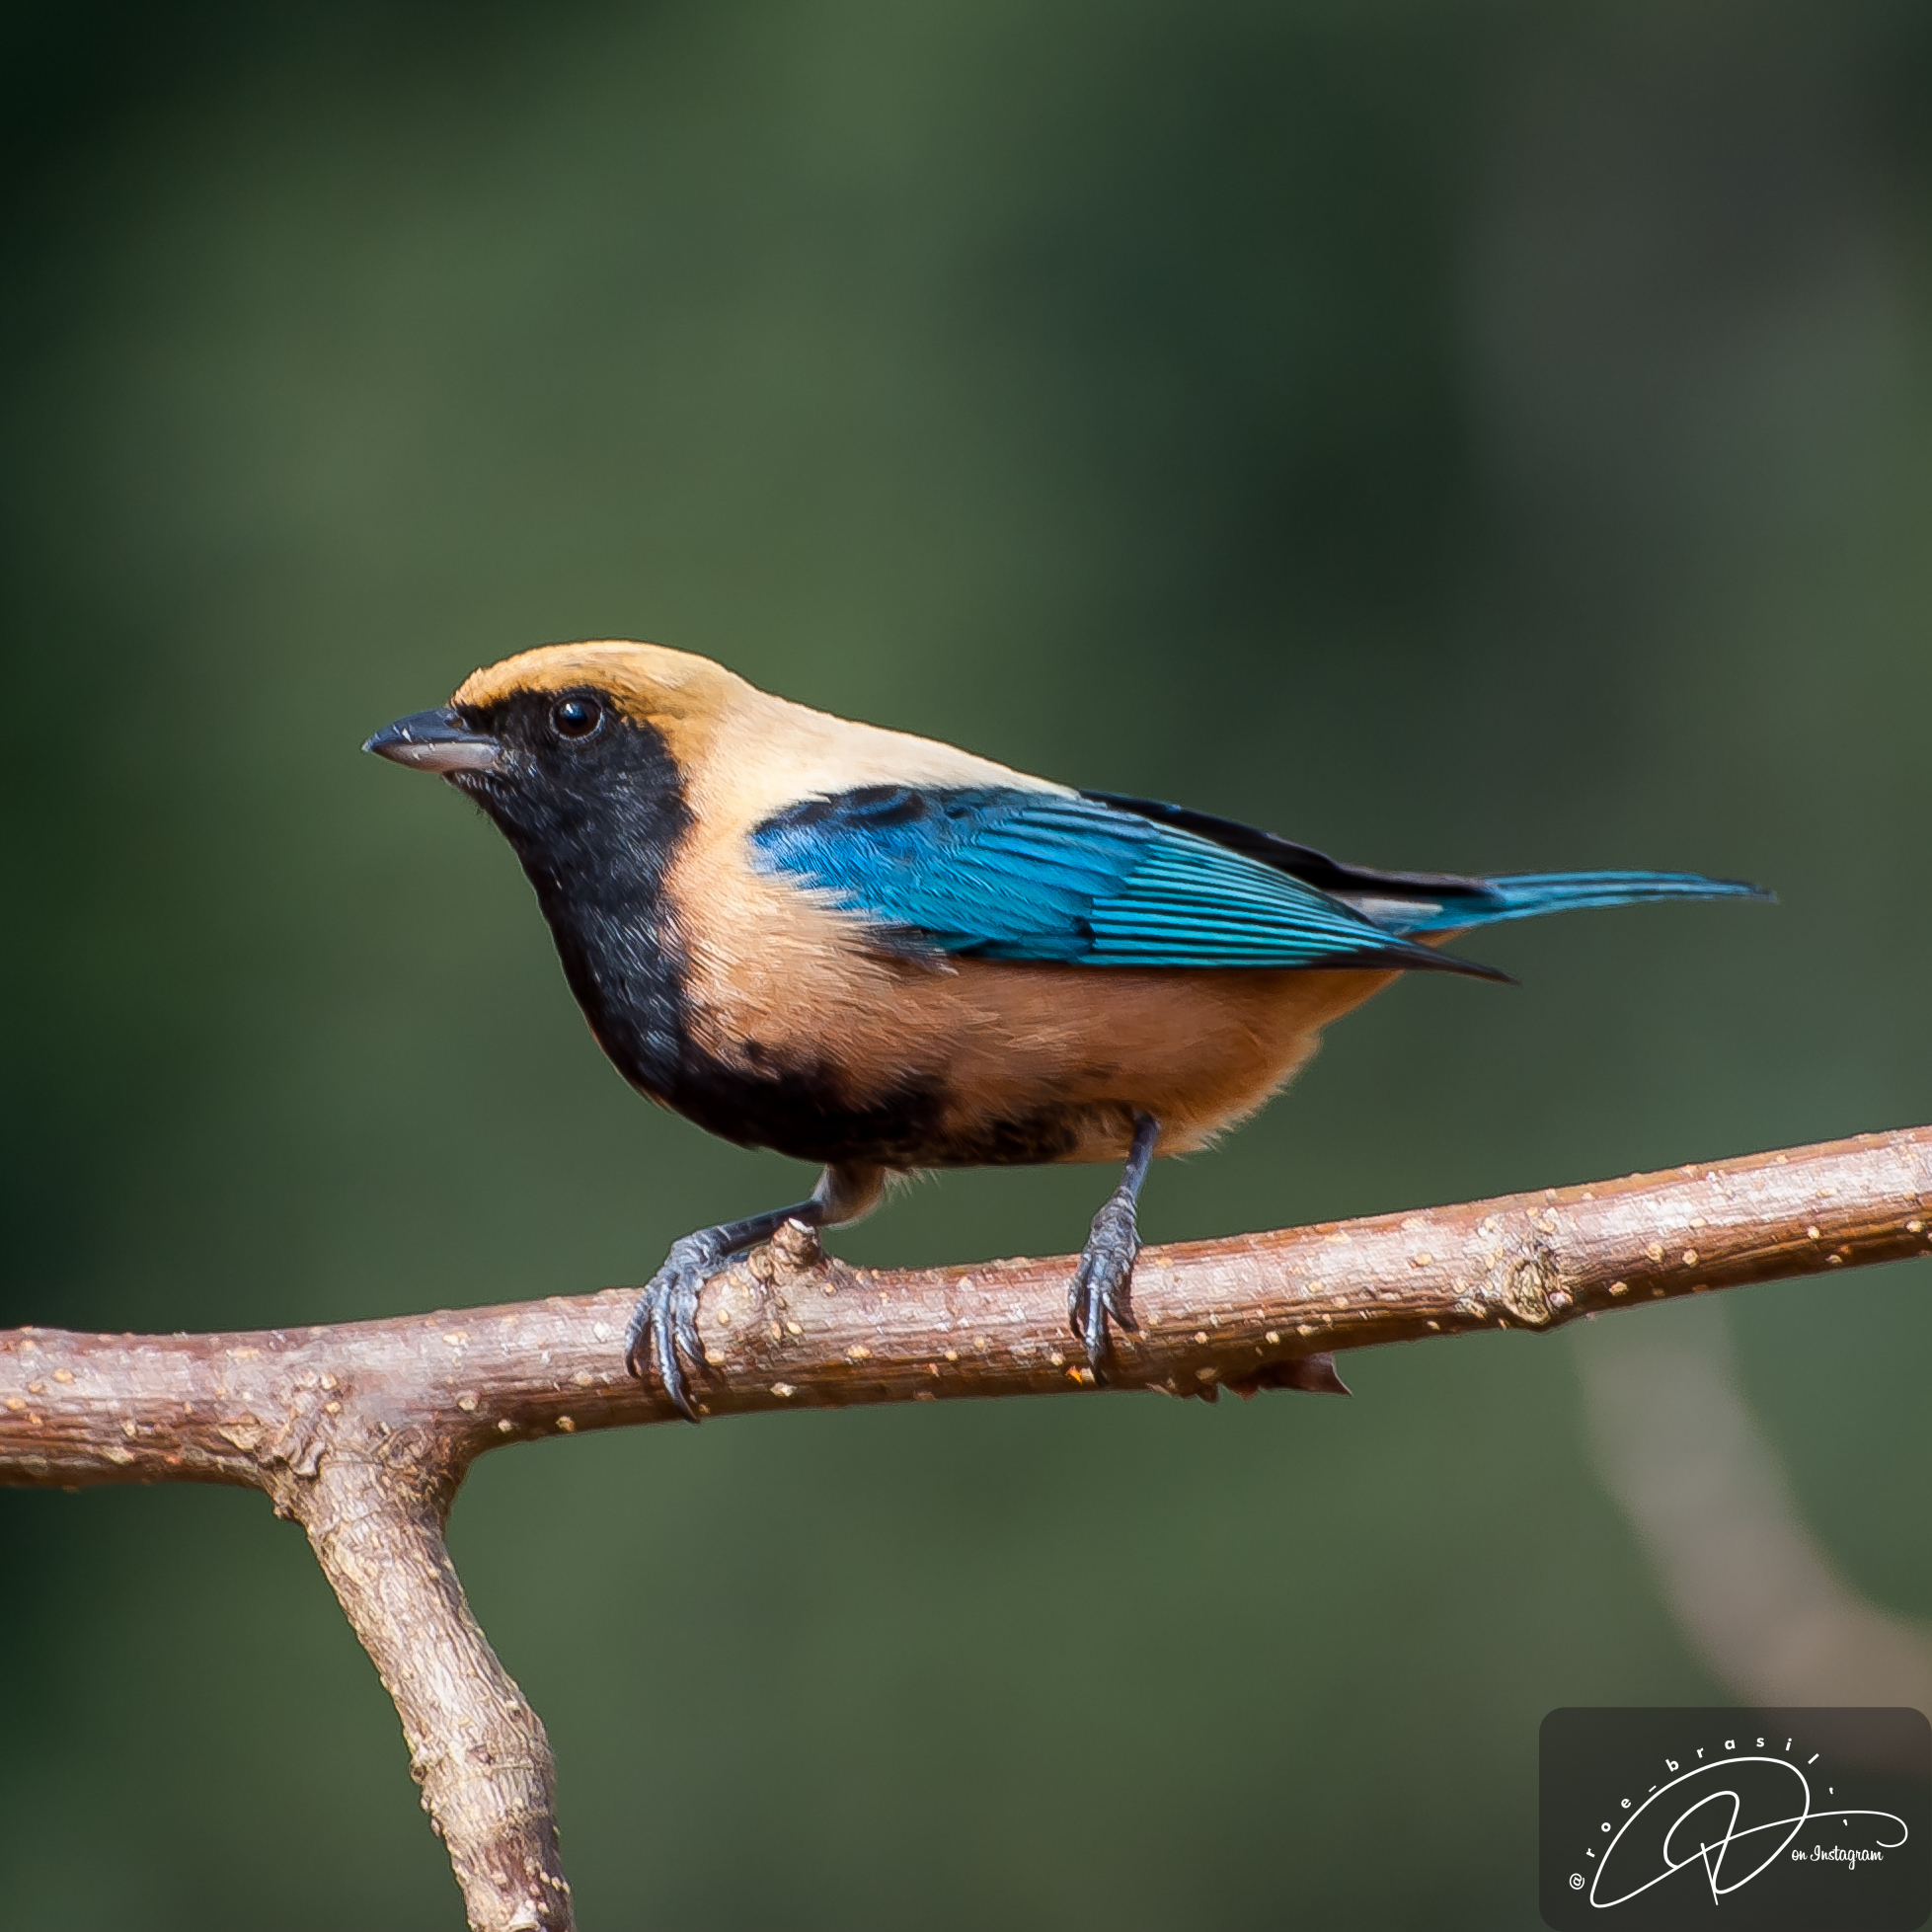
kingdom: Animalia
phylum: Chordata
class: Aves
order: Passeriformes
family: Thraupidae
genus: Stilpnia
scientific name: Stilpnia cayana
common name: Burnished-buff tanager
